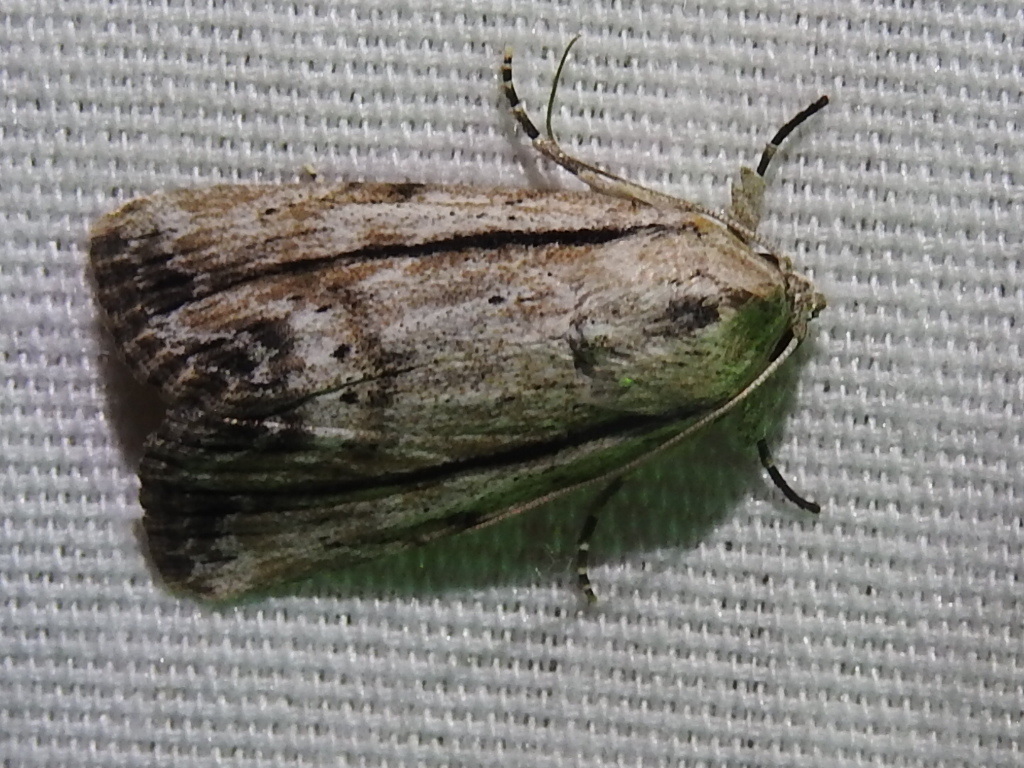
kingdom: Animalia
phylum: Arthropoda
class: Insecta
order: Lepidoptera
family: Noctuidae
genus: Catabenoides
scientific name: Catabenoides terminellus
